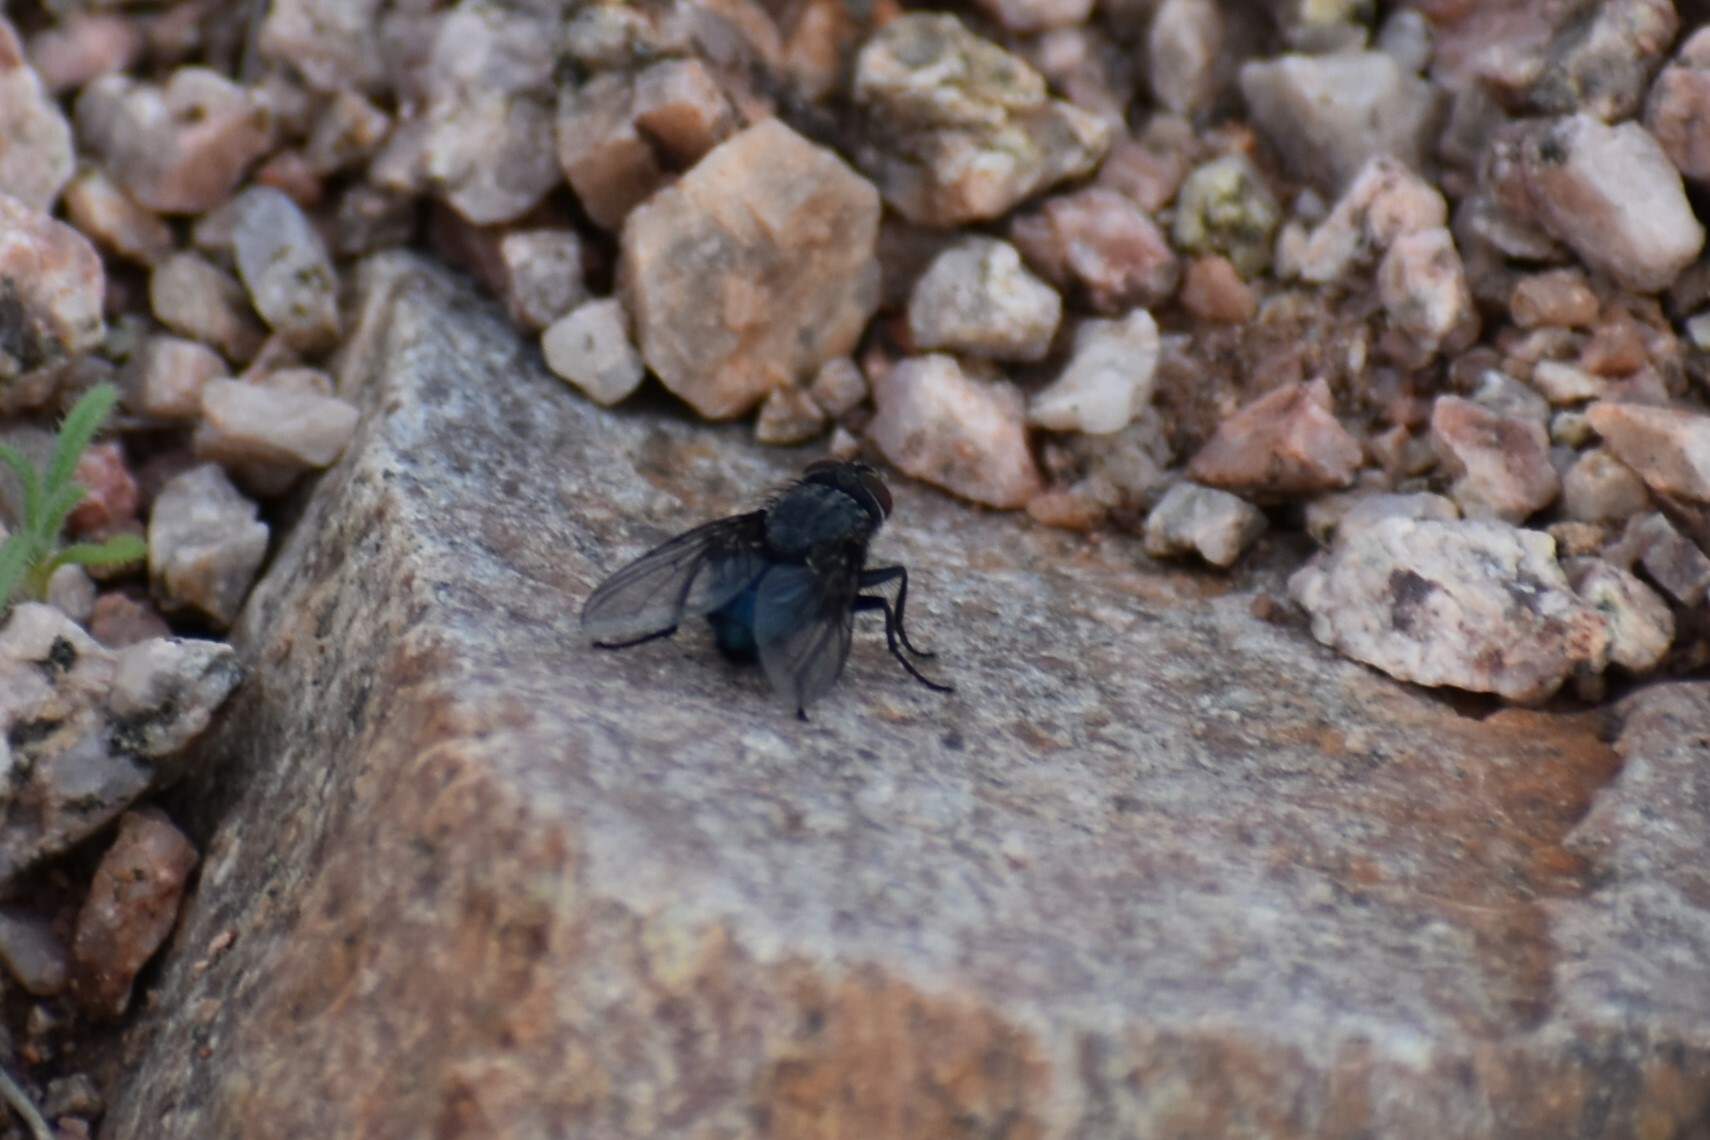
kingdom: Animalia
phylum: Arthropoda
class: Insecta
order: Diptera
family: Calliphoridae
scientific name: Calliphoridae
